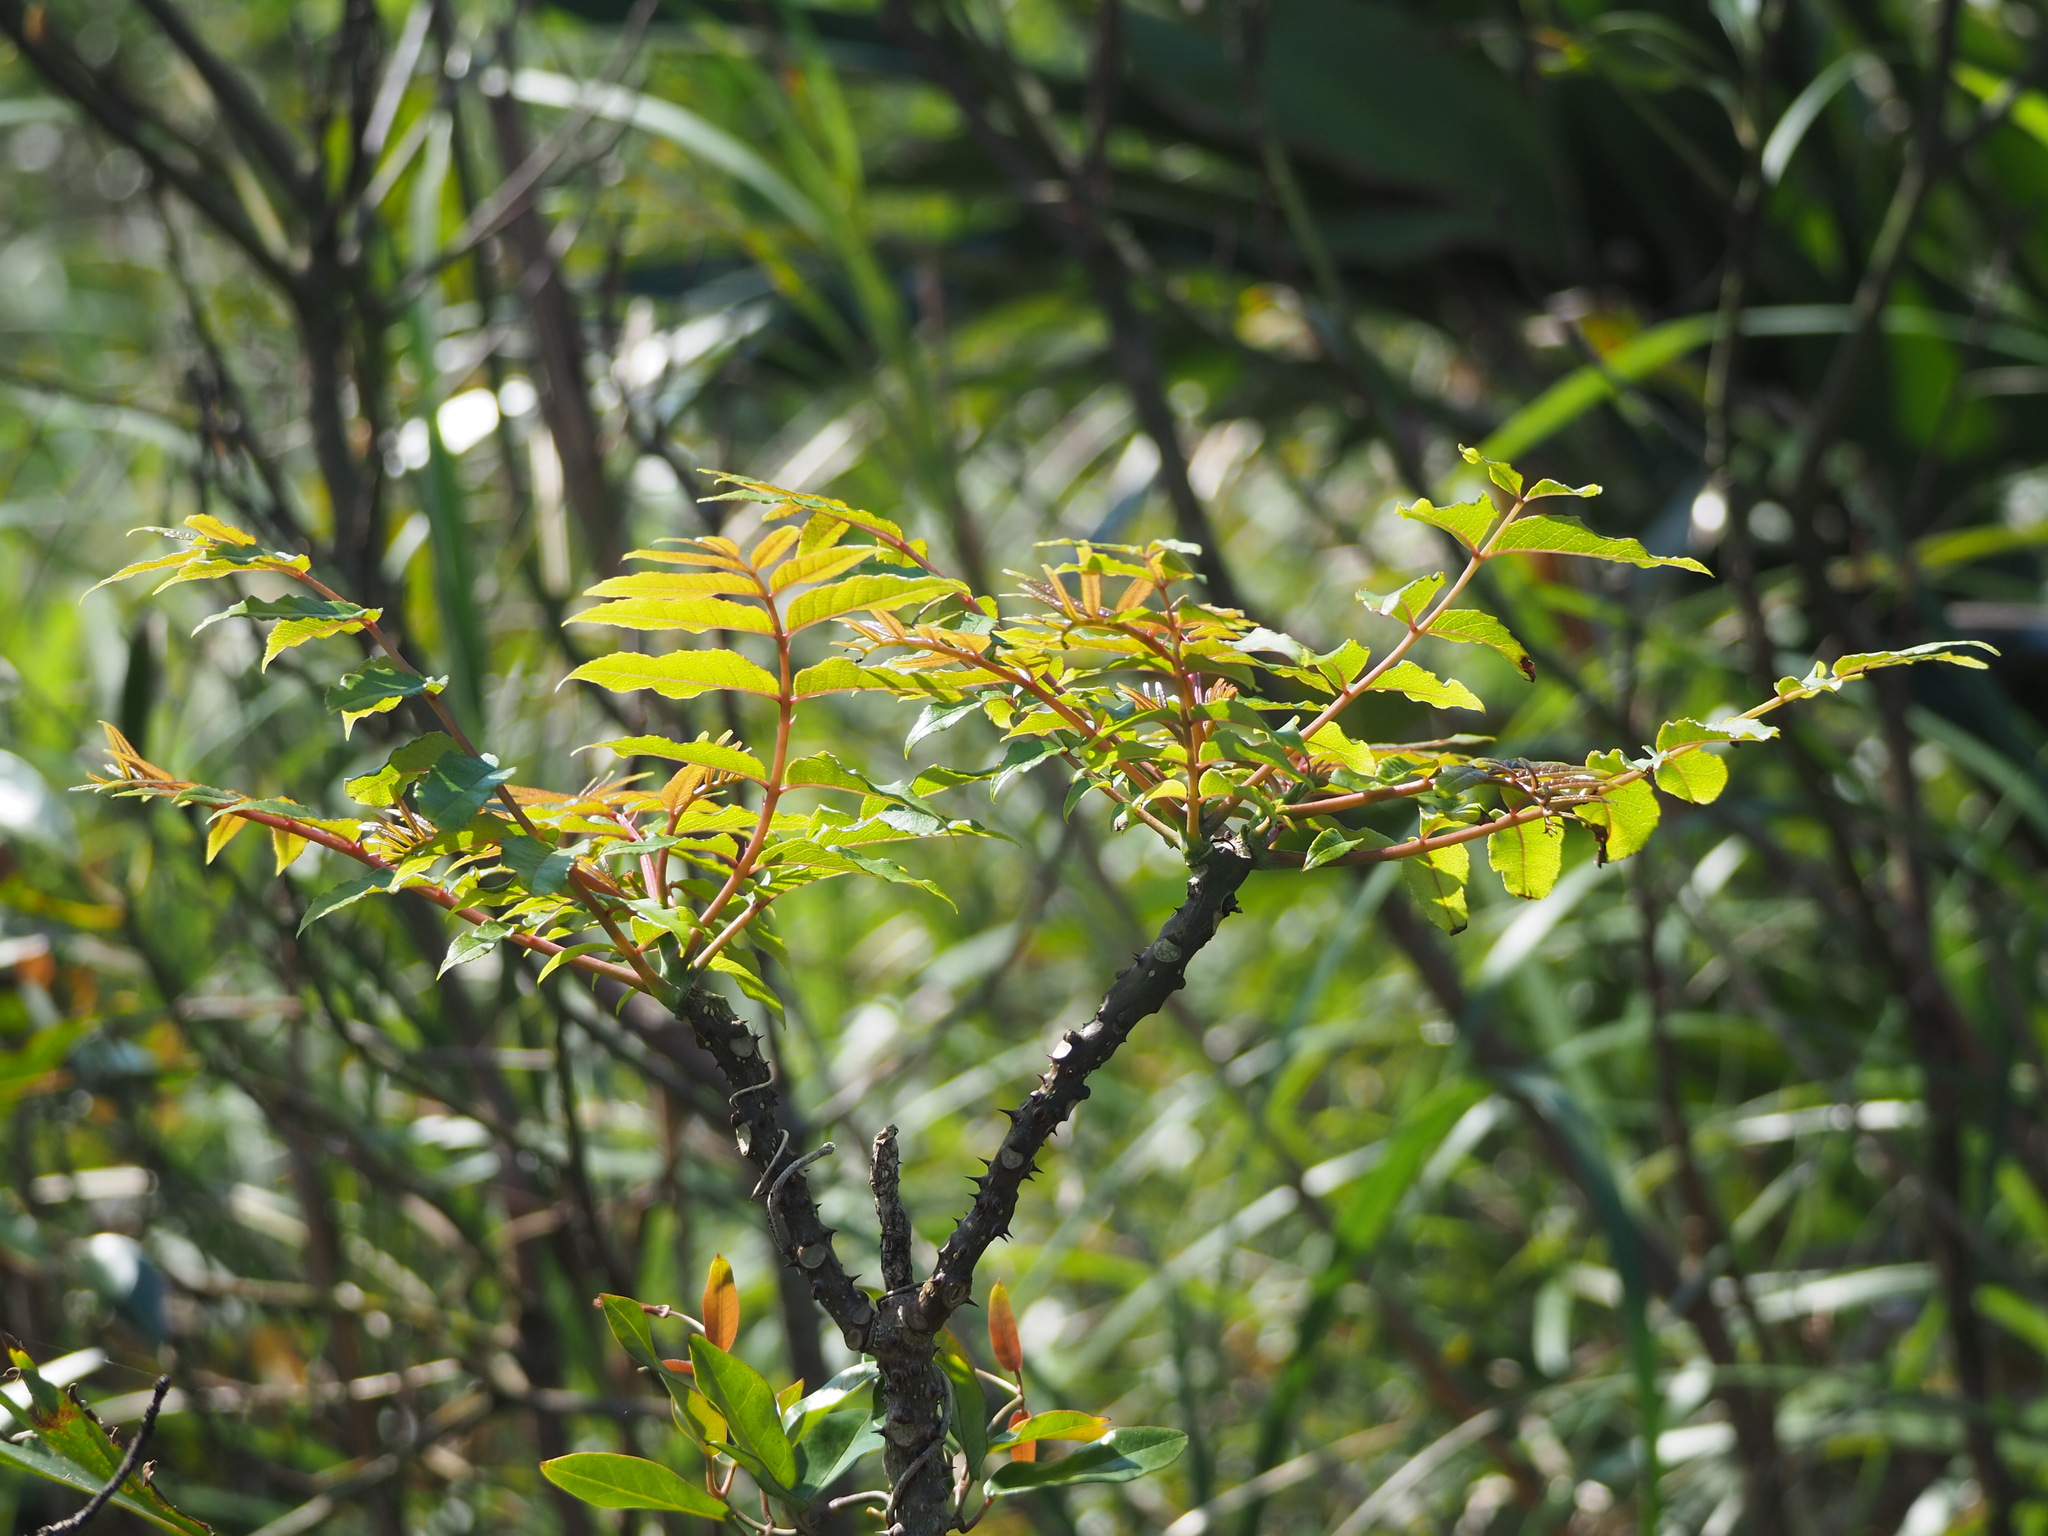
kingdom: Plantae
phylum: Tracheophyta
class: Magnoliopsida
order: Sapindales
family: Rutaceae
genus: Zanthoxylum
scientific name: Zanthoxylum ailanthoides
